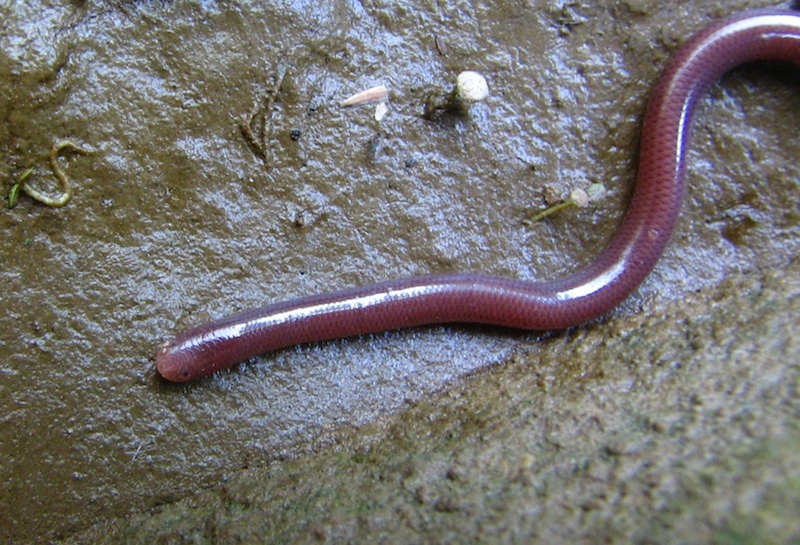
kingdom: Animalia
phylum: Chordata
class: Squamata
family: Typhlopidae
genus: Indotyphlops
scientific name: Indotyphlops braminus
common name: Brahminy blindsnake
